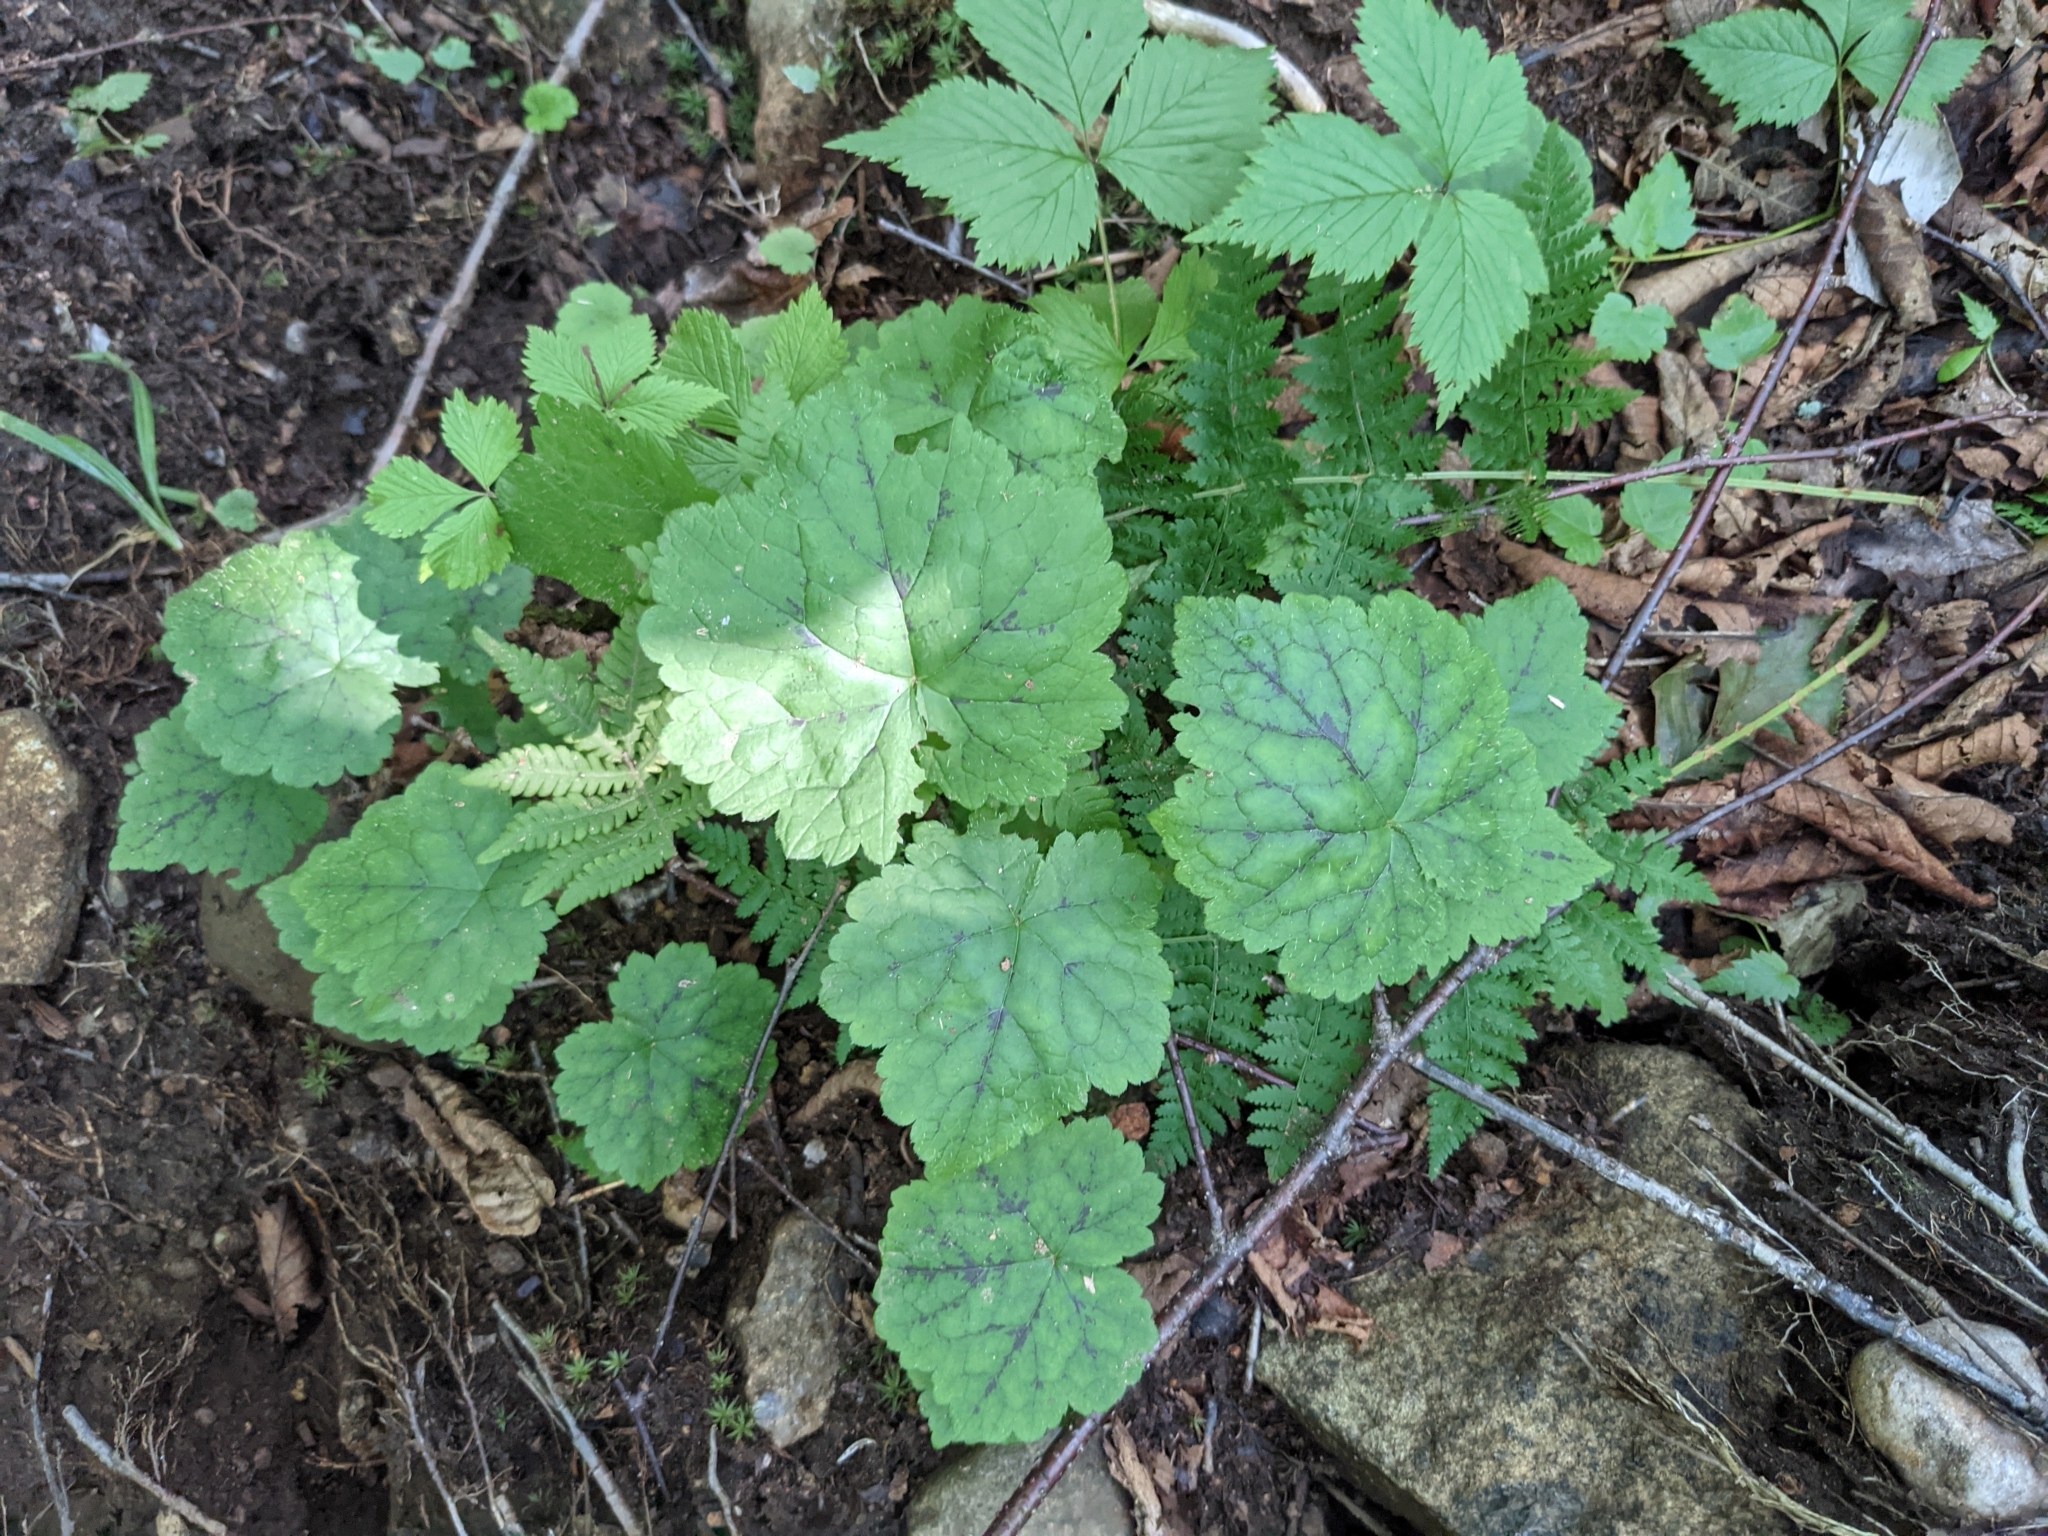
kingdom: Plantae
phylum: Tracheophyta
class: Magnoliopsida
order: Saxifragales
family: Saxifragaceae
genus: Tiarella
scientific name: Tiarella stolonifera
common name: Stoloniferous foamflower
